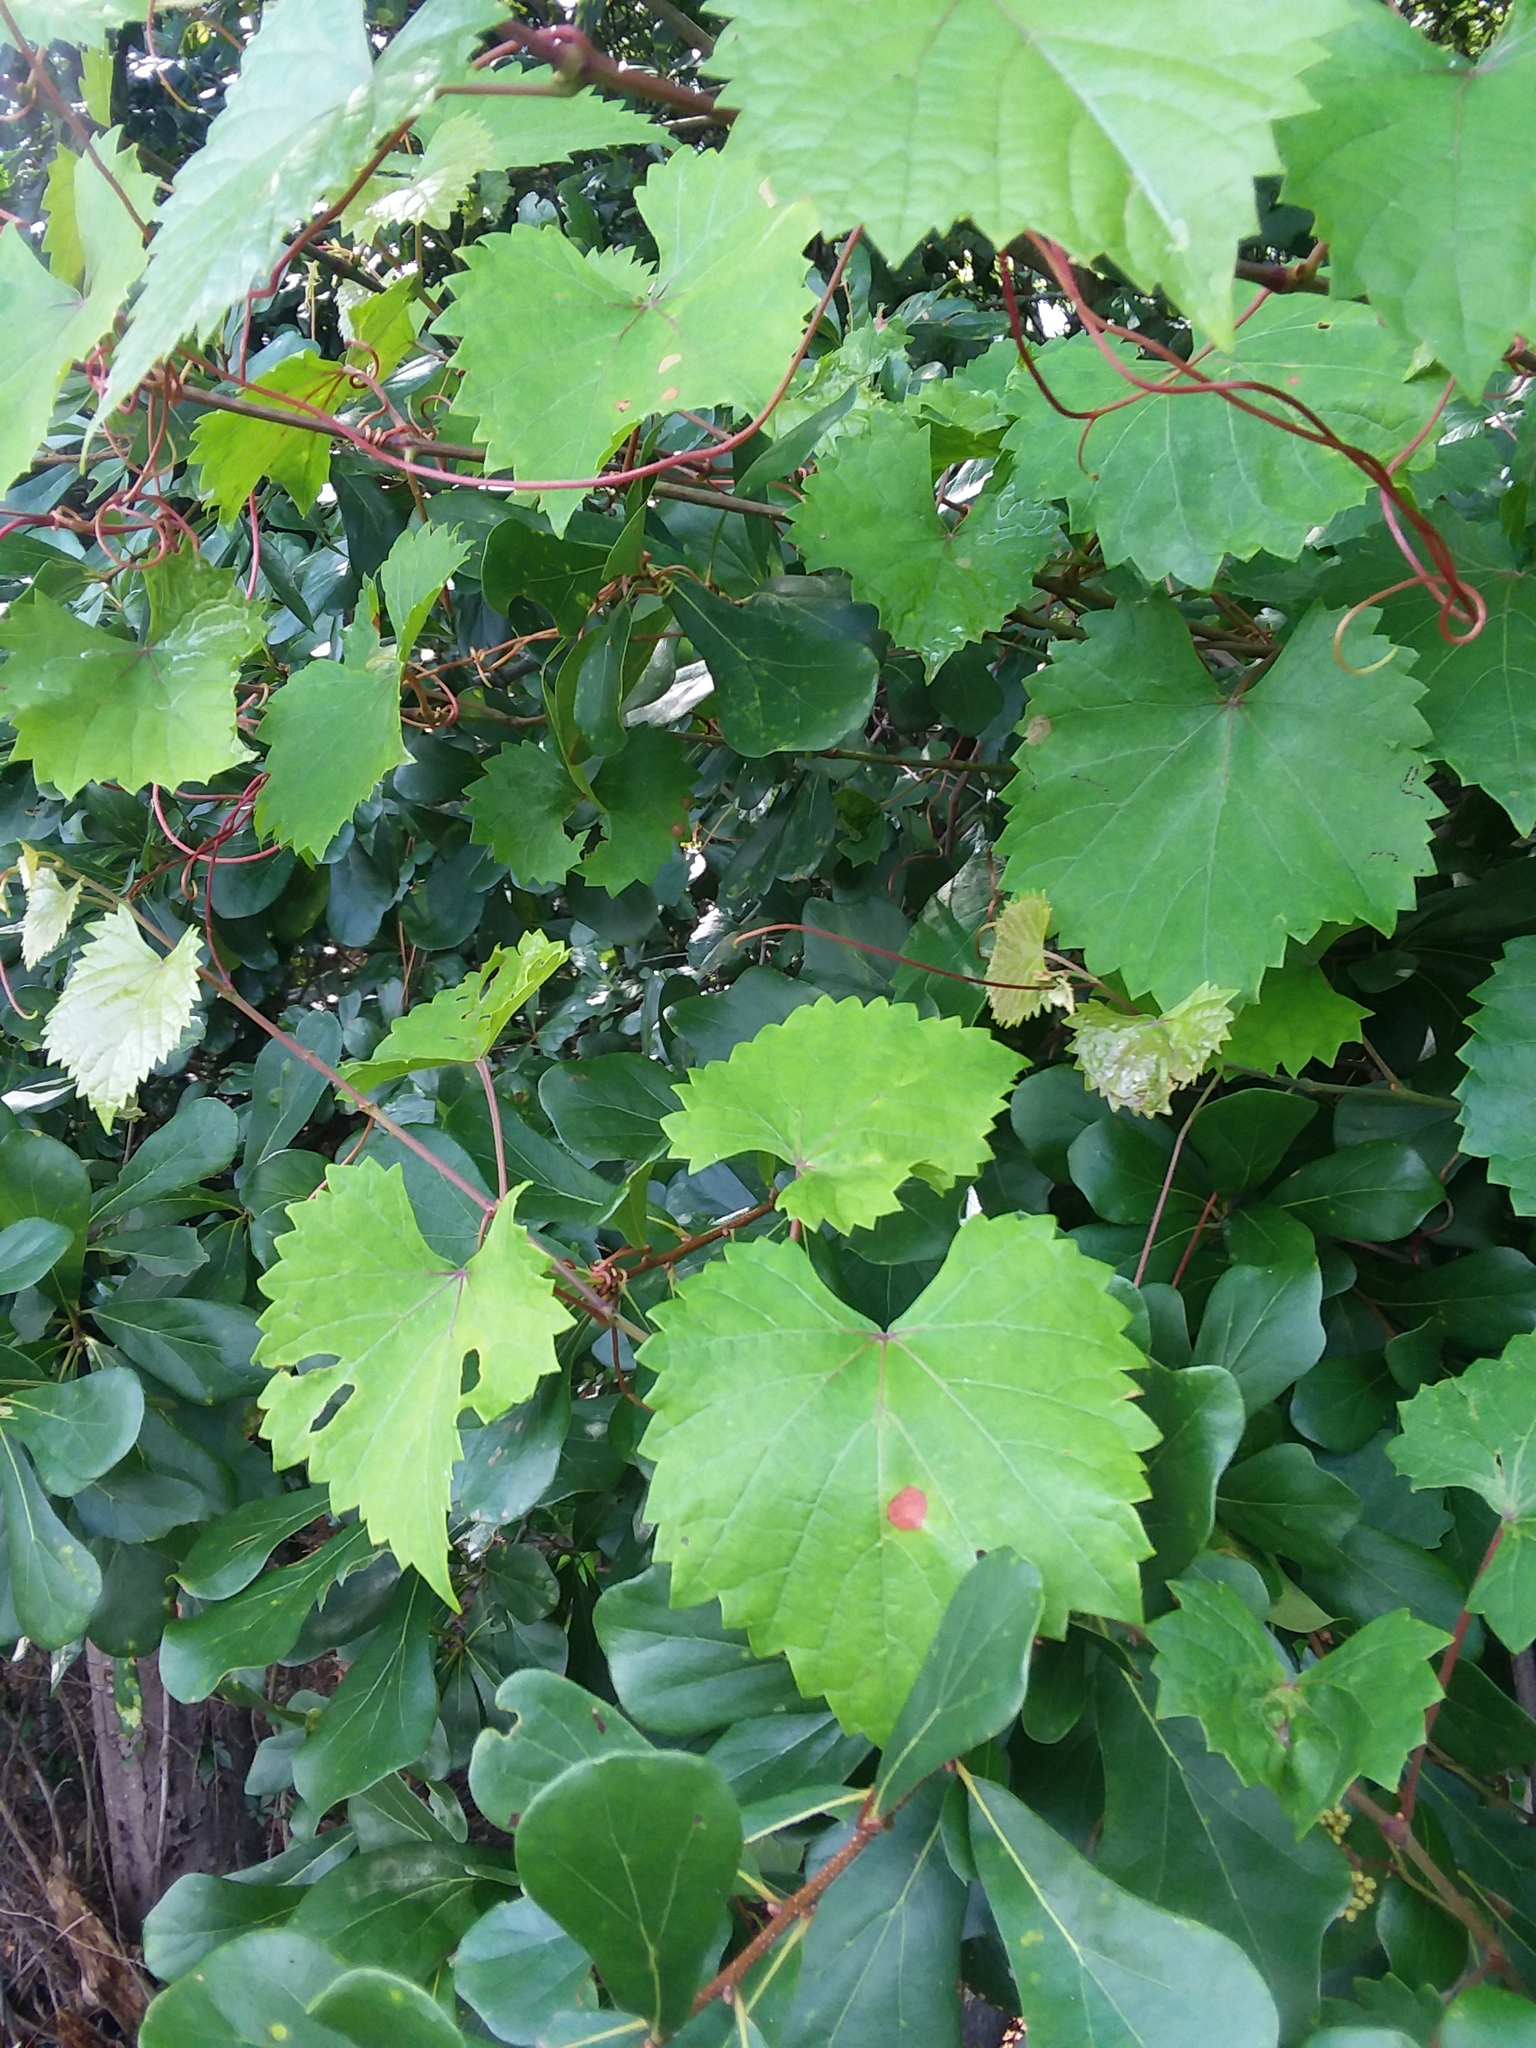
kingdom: Plantae
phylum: Tracheophyta
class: Magnoliopsida
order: Vitales
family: Vitaceae
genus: Vitis
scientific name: Vitis rotundifolia
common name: Muscadine grape
